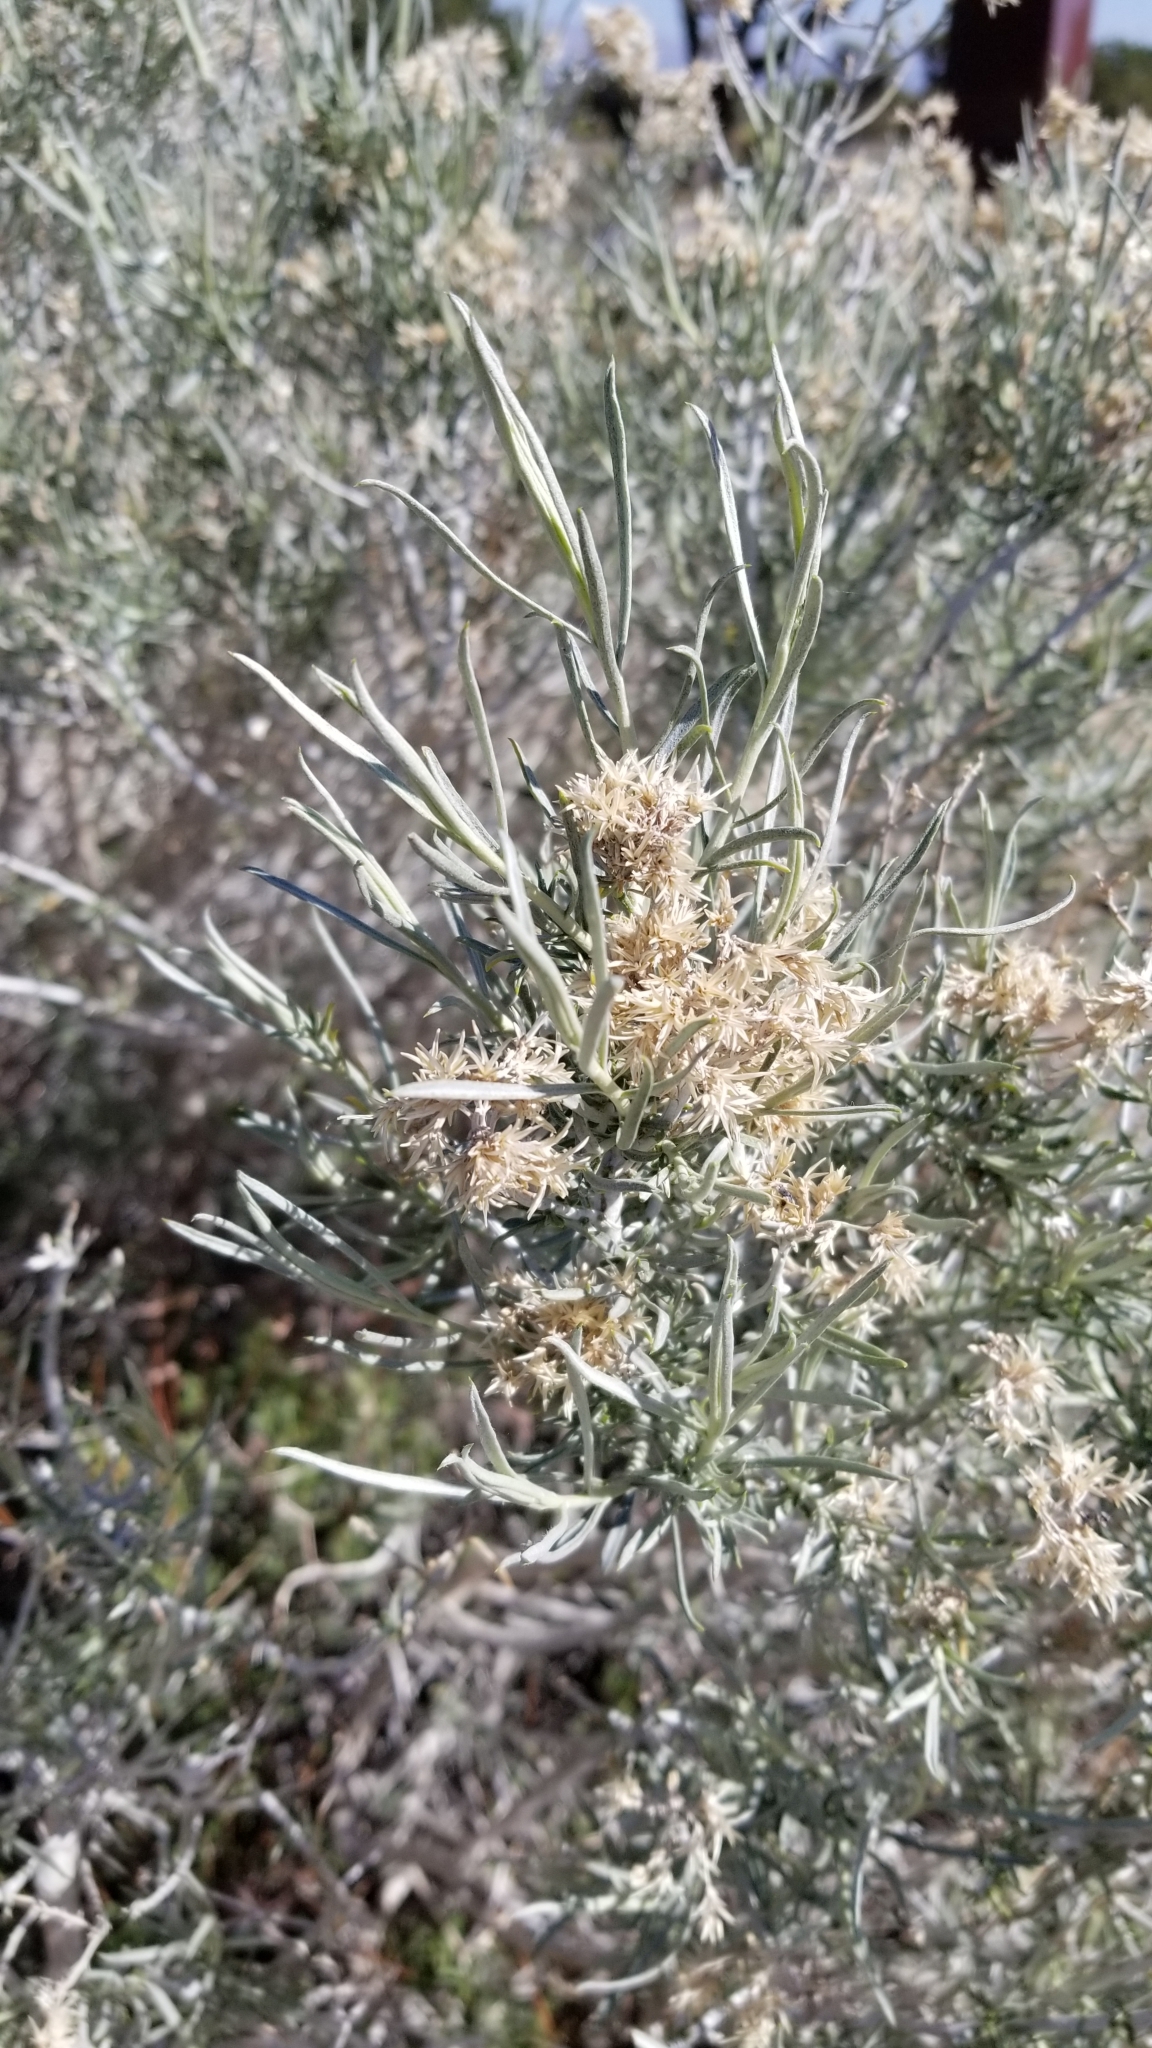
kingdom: Plantae
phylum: Tracheophyta
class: Magnoliopsida
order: Asterales
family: Asteraceae
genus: Ericameria
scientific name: Ericameria nauseosa
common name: Rubber rabbitbrush
